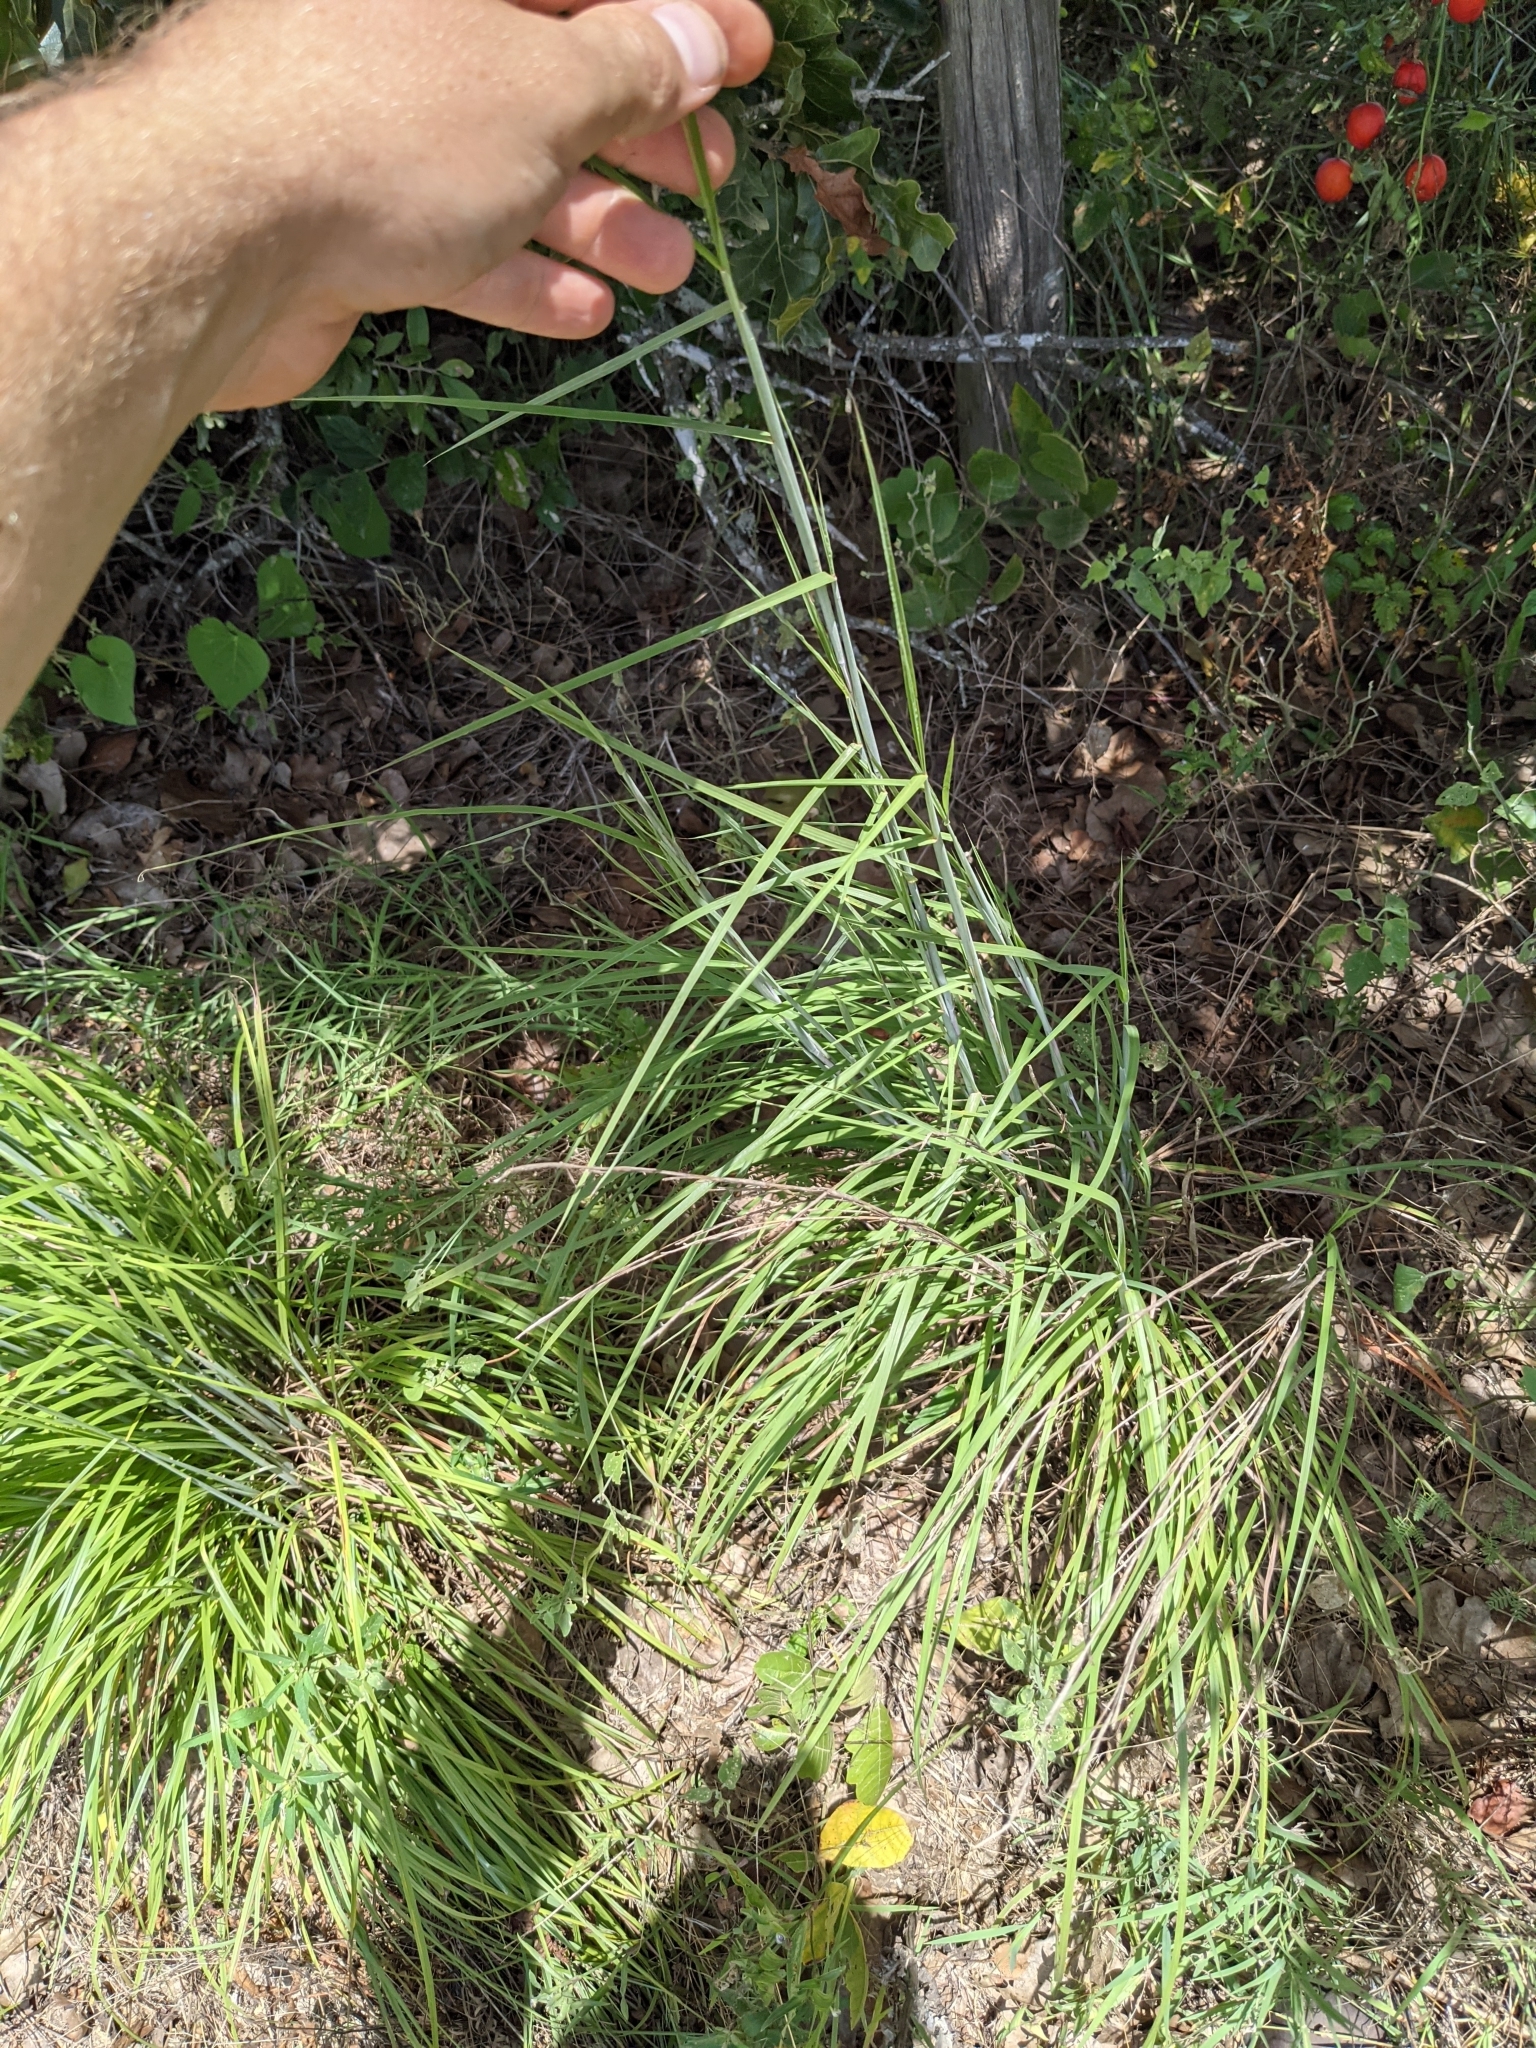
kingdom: Plantae
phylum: Tracheophyta
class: Liliopsida
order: Poales
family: Poaceae
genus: Schizachyrium
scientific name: Schizachyrium scoparium
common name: Little bluestem
